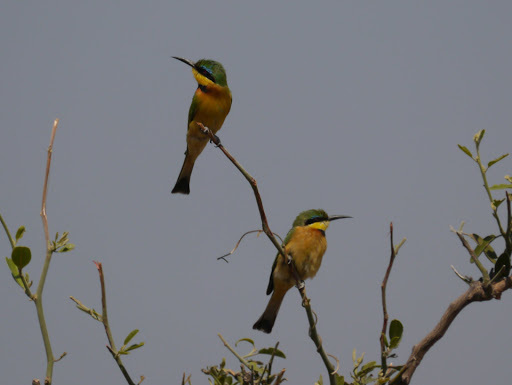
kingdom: Animalia
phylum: Chordata
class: Aves
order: Coraciiformes
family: Meropidae
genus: Merops
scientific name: Merops pusillus
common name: Little bee-eater
